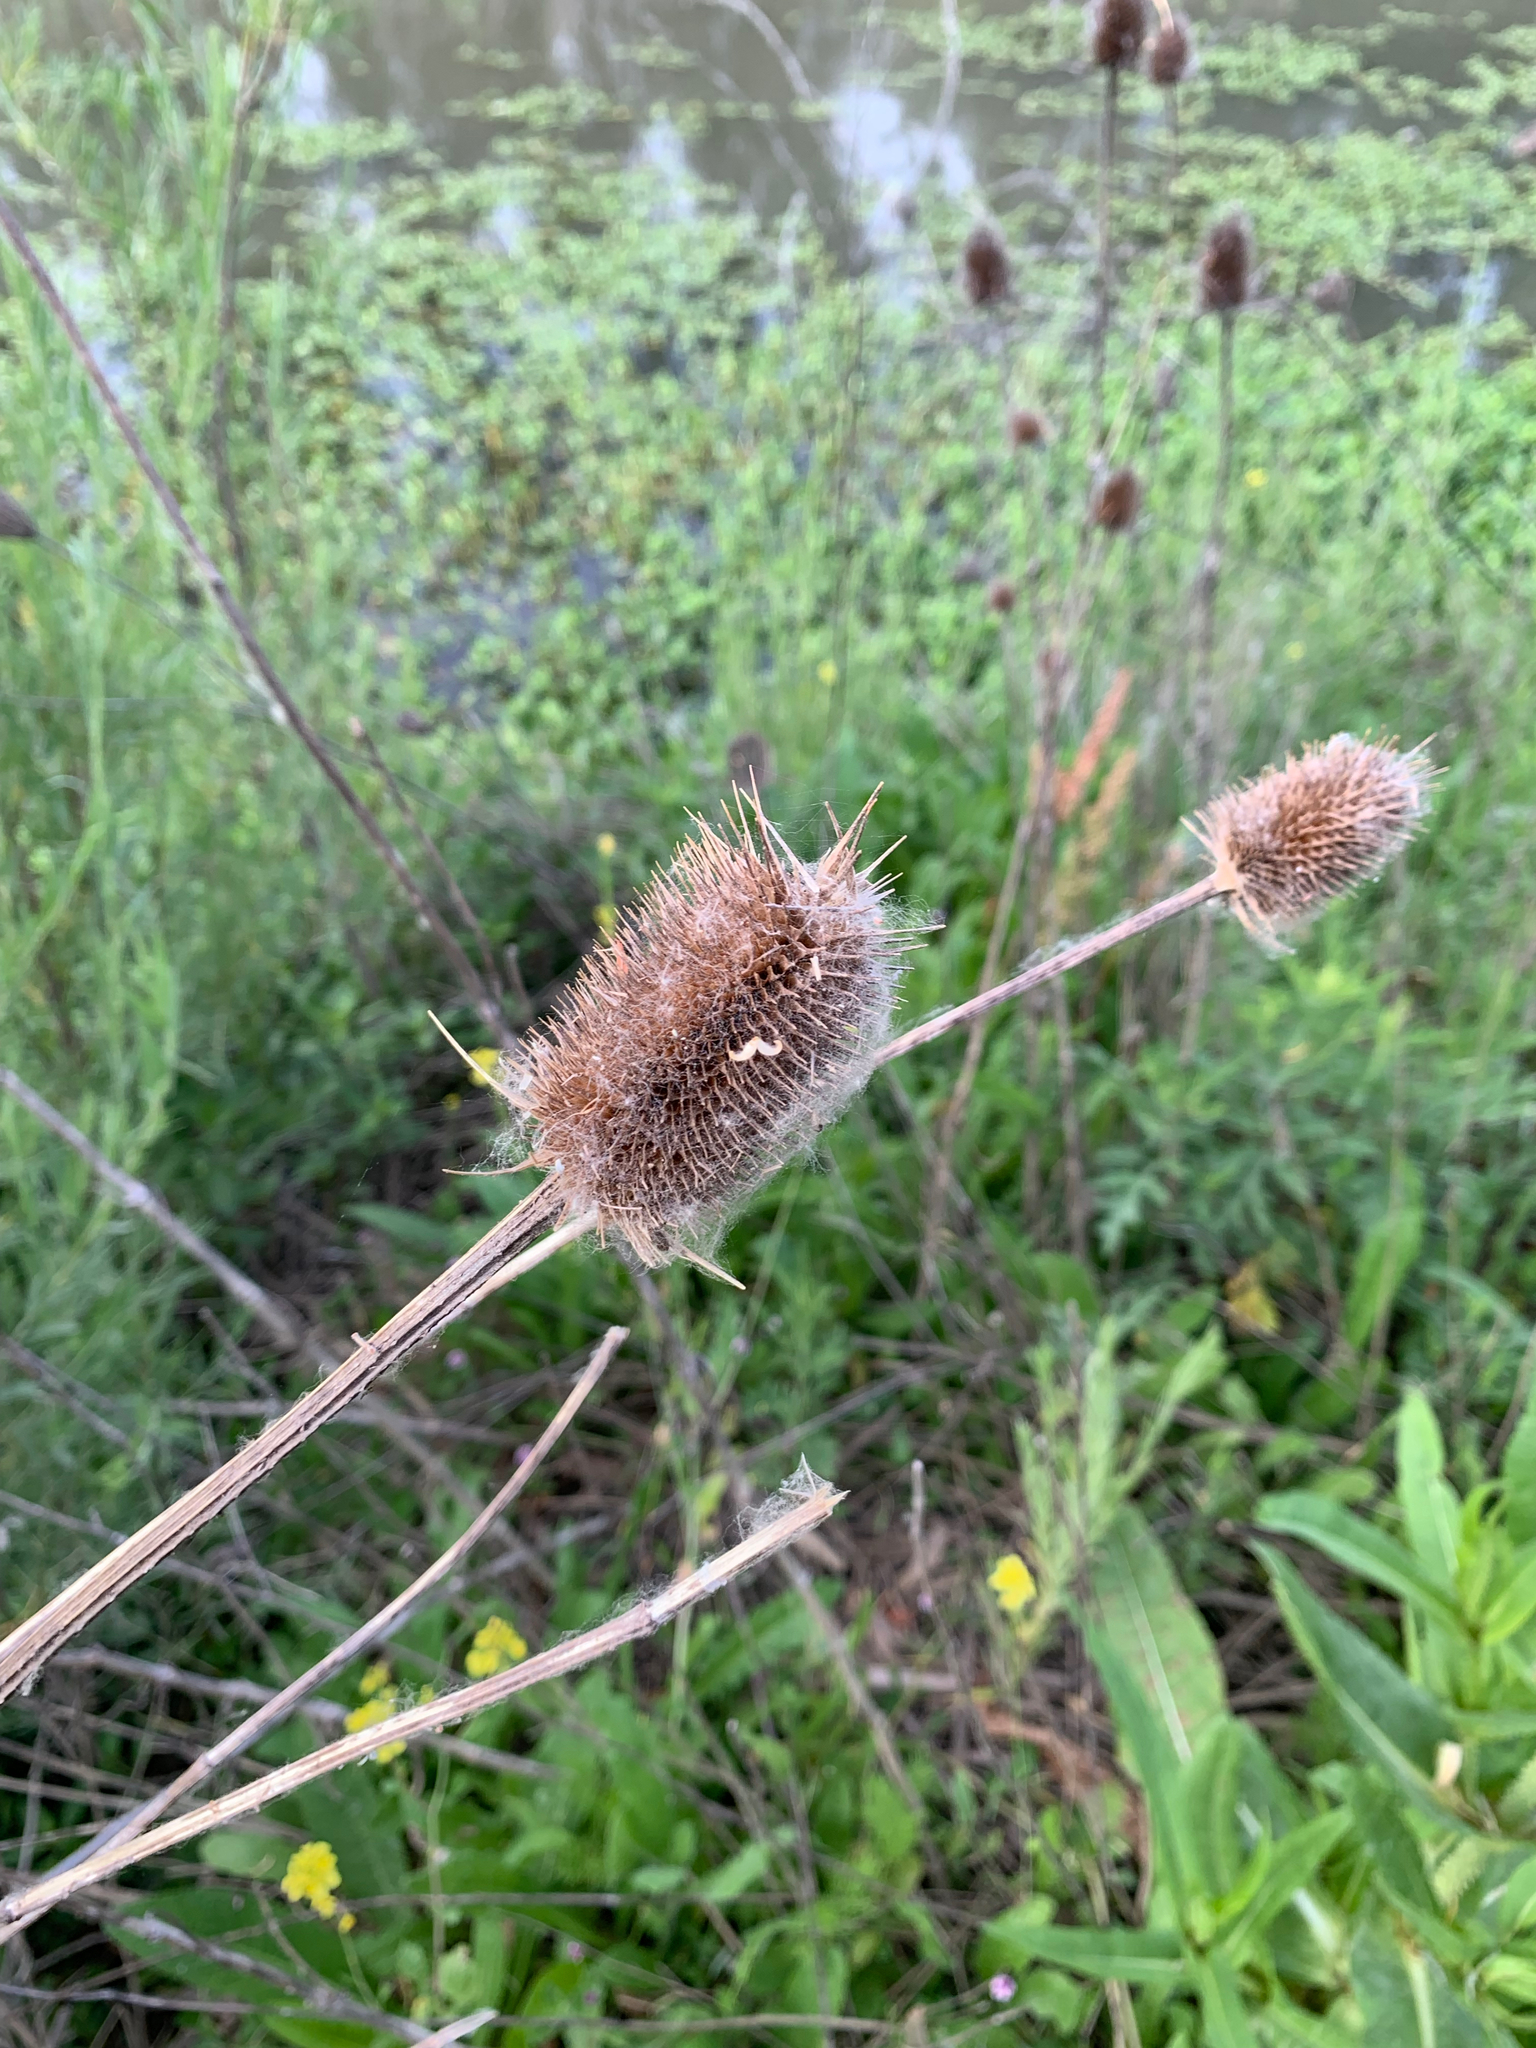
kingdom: Plantae
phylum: Tracheophyta
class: Magnoliopsida
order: Dipsacales
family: Caprifoliaceae
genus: Dipsacus
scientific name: Dipsacus fullonum
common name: Teasel
